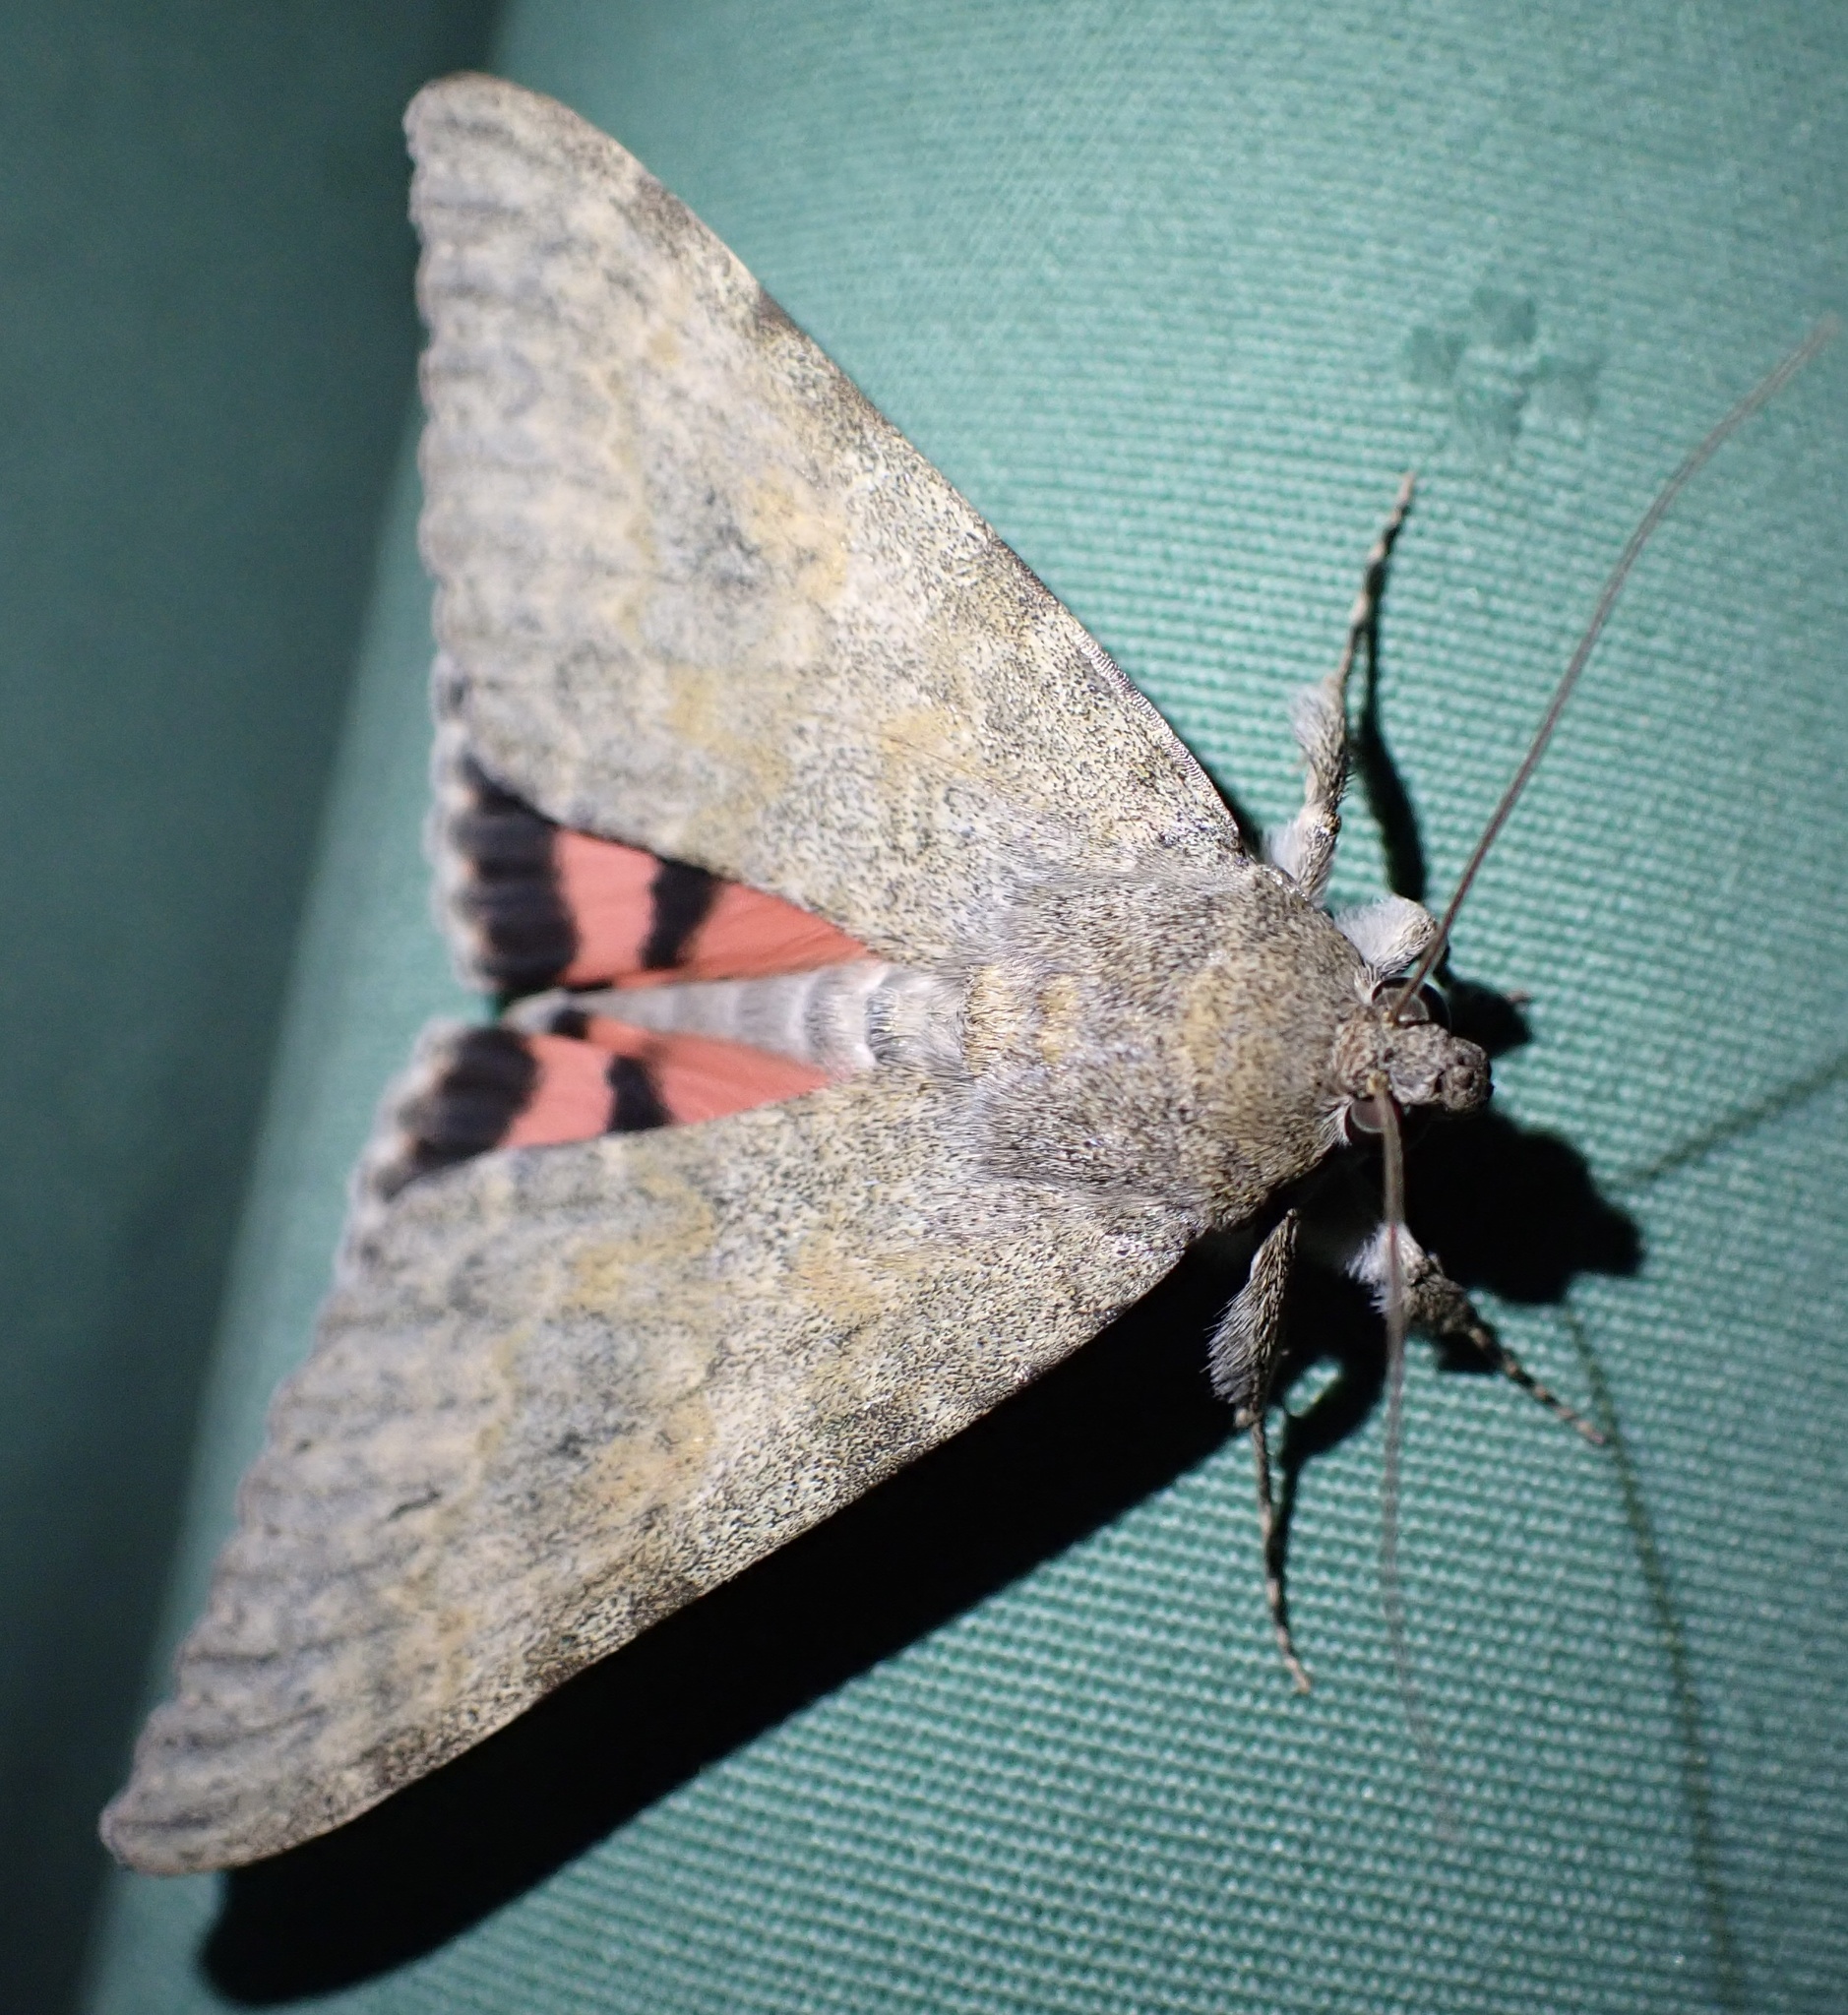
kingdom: Animalia
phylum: Arthropoda
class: Insecta
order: Lepidoptera
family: Erebidae
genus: Catocala
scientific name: Catocala elocata
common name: French red underwing
